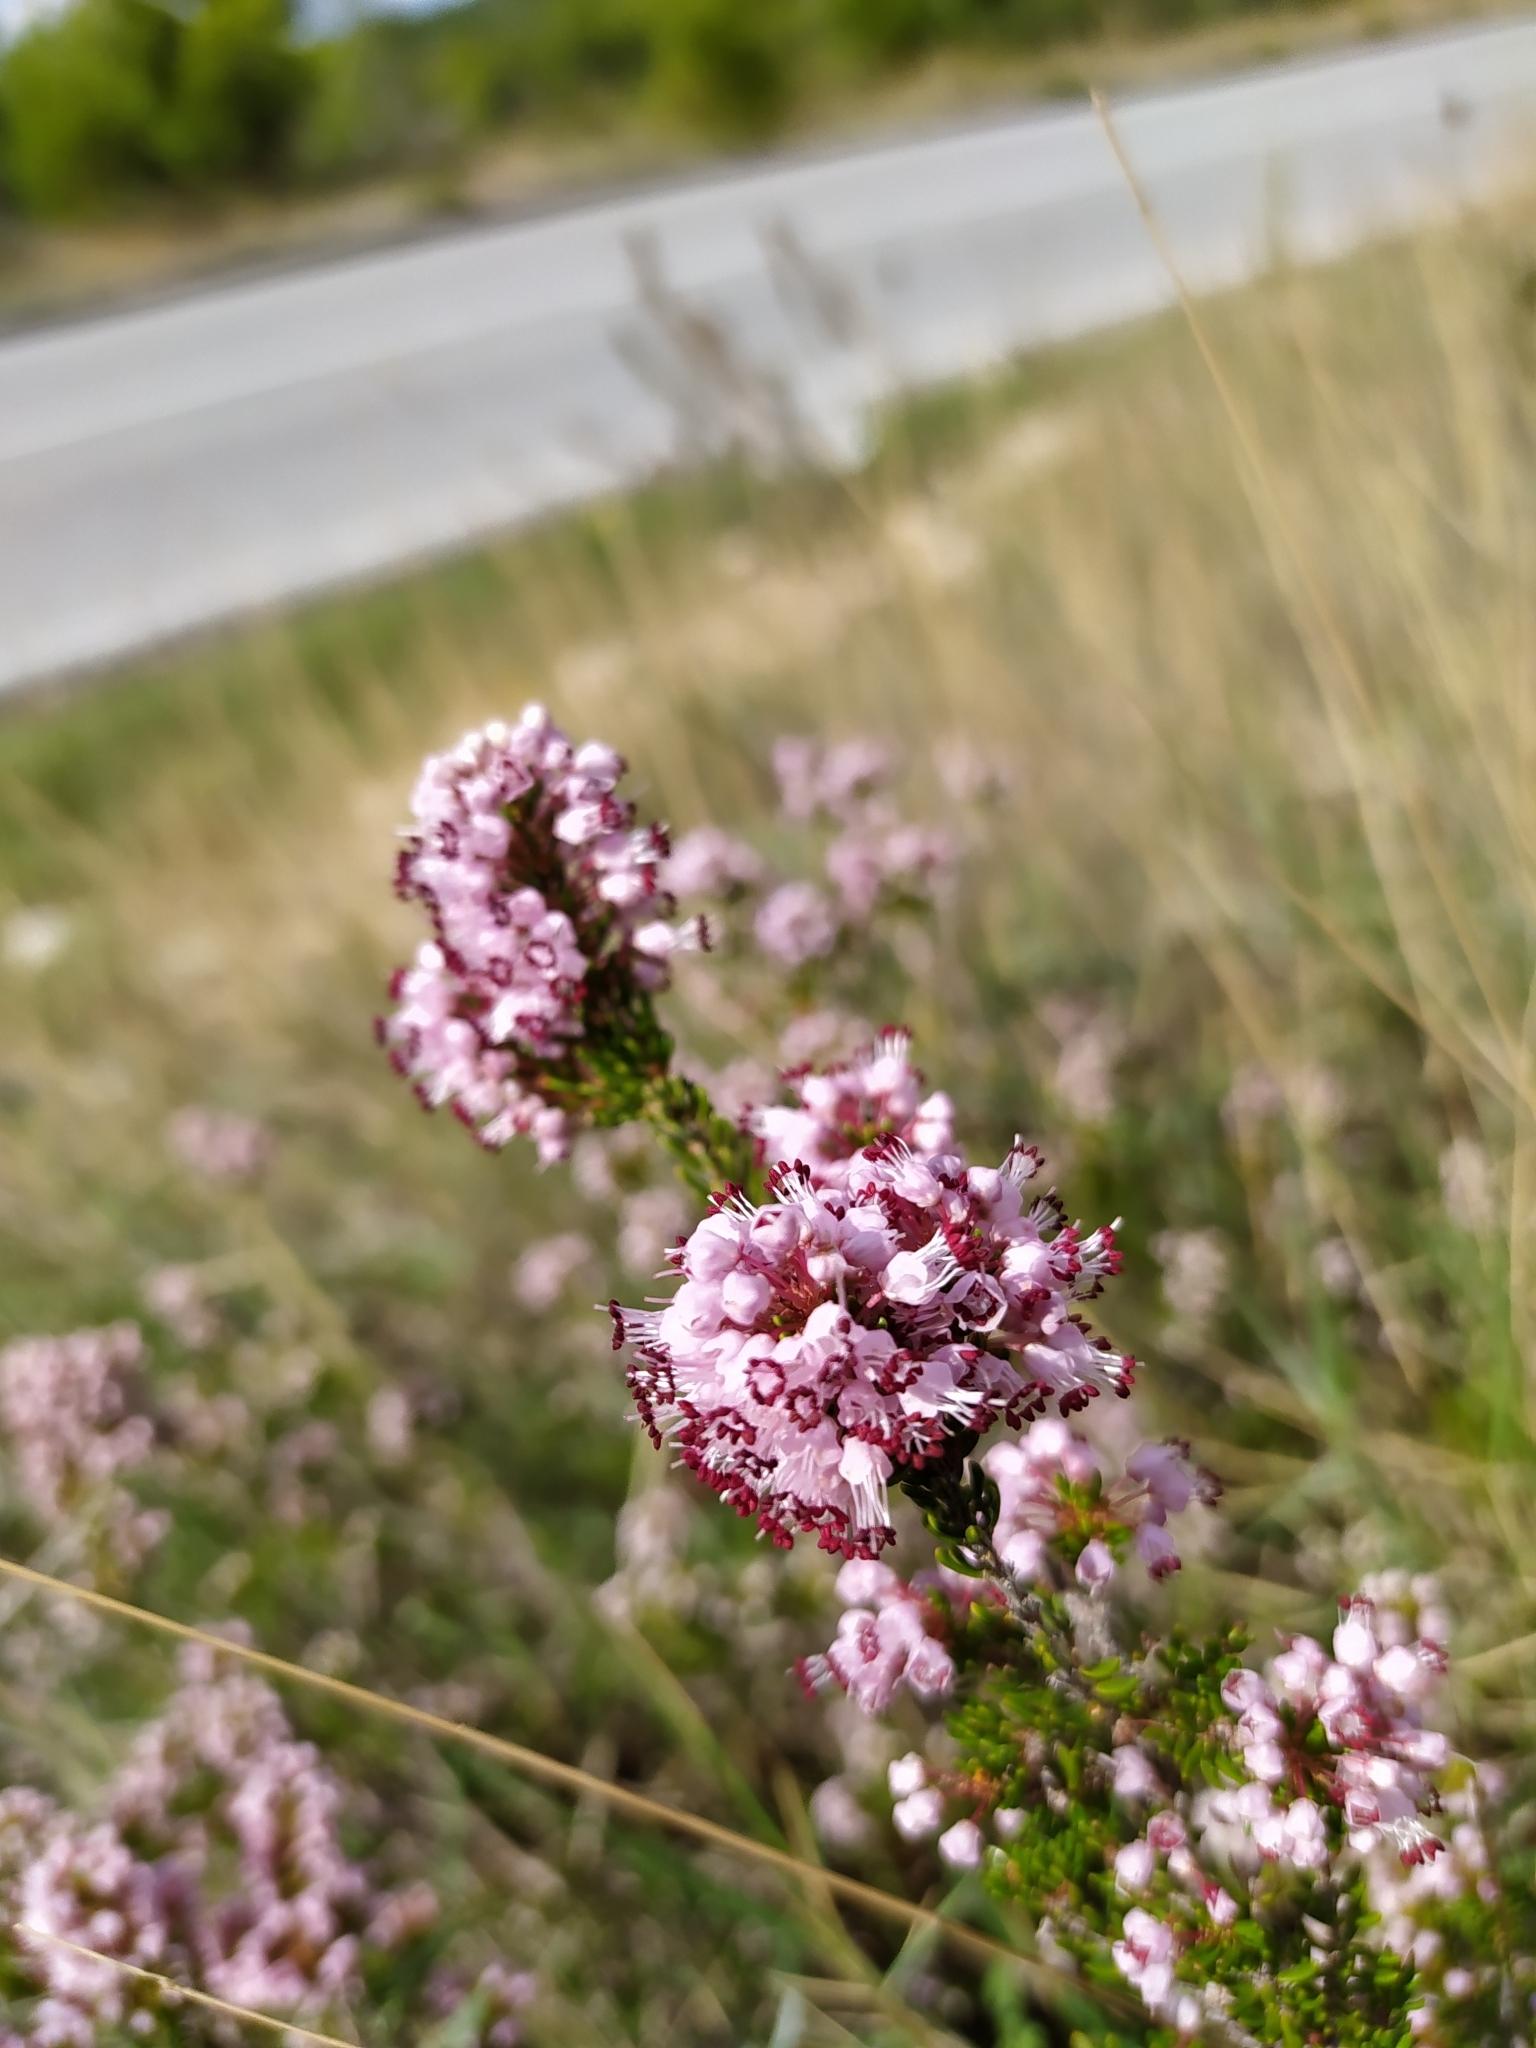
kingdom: Plantae
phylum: Tracheophyta
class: Magnoliopsida
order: Ericales
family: Ericaceae
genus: Erica
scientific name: Erica manipuliflora
